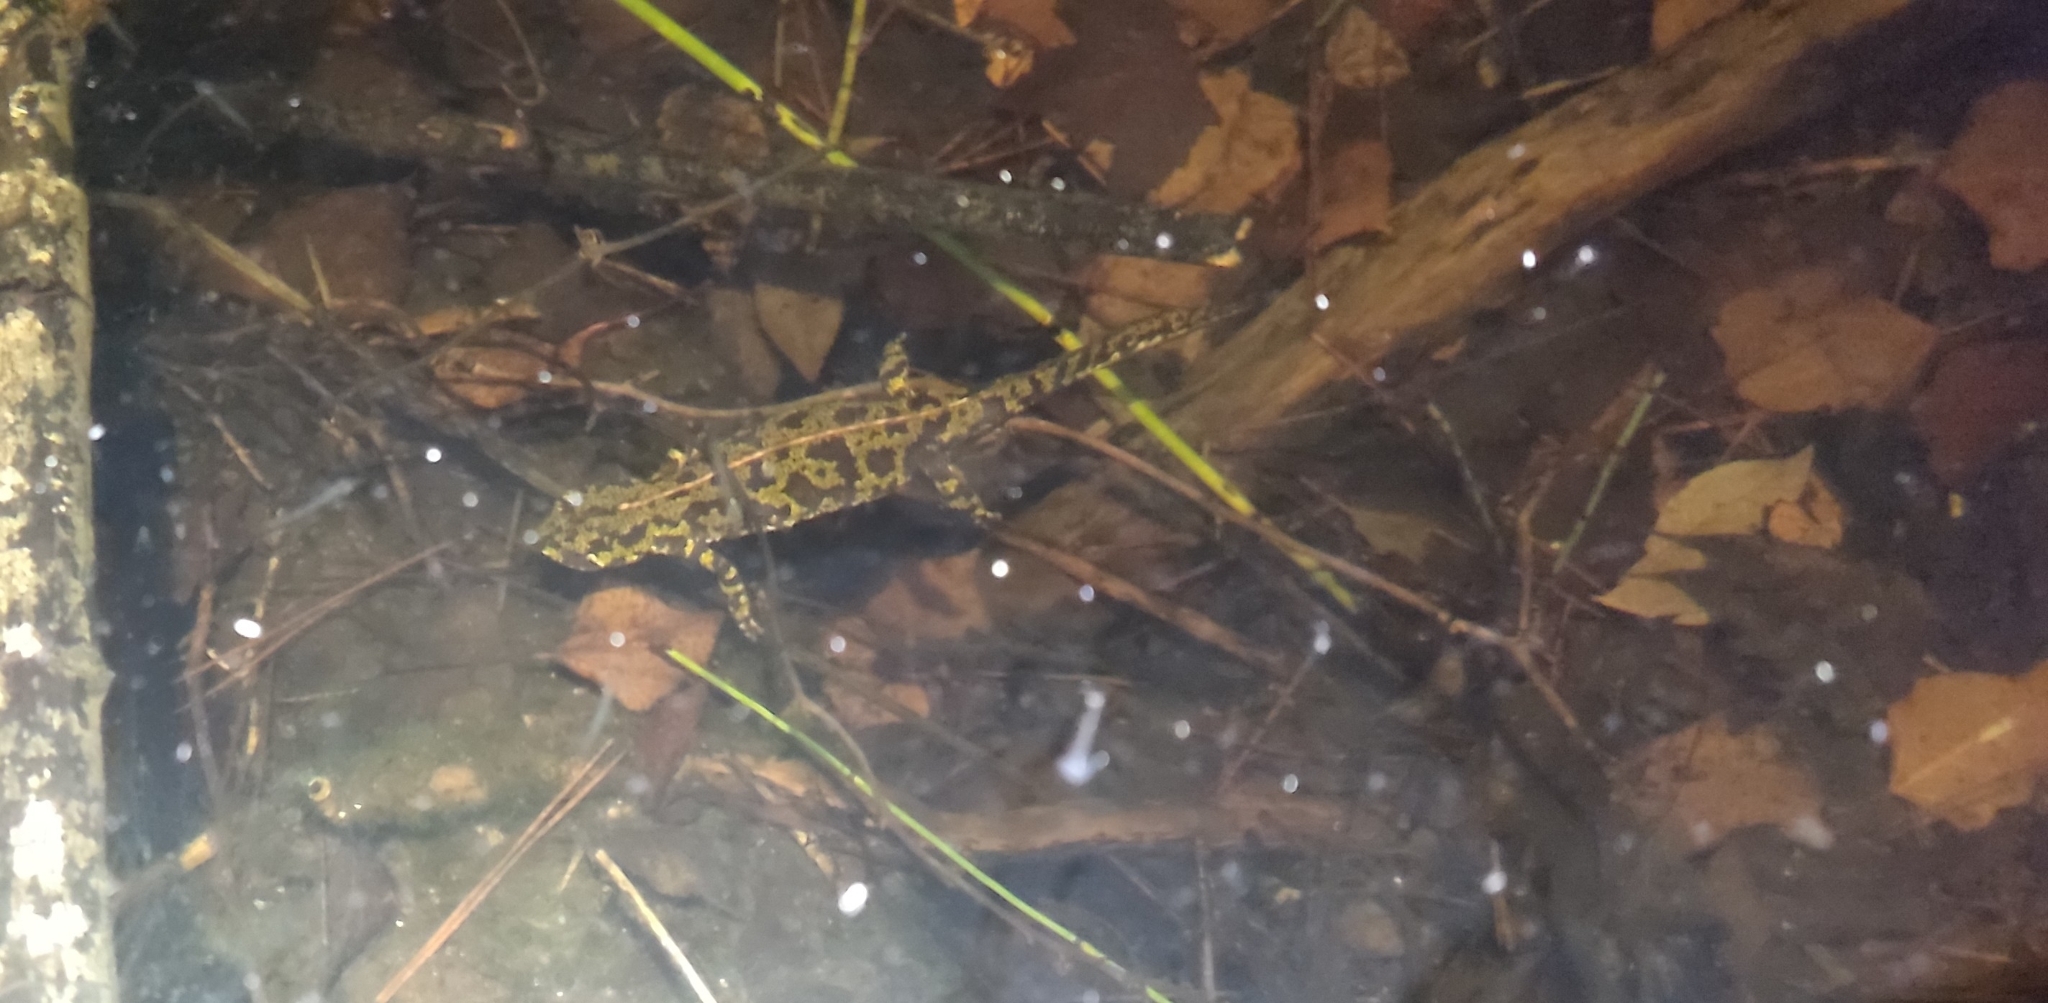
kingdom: Animalia
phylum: Chordata
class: Amphibia
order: Caudata
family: Salamandridae
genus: Triturus
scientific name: Triturus marmoratus
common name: Marbled newt
